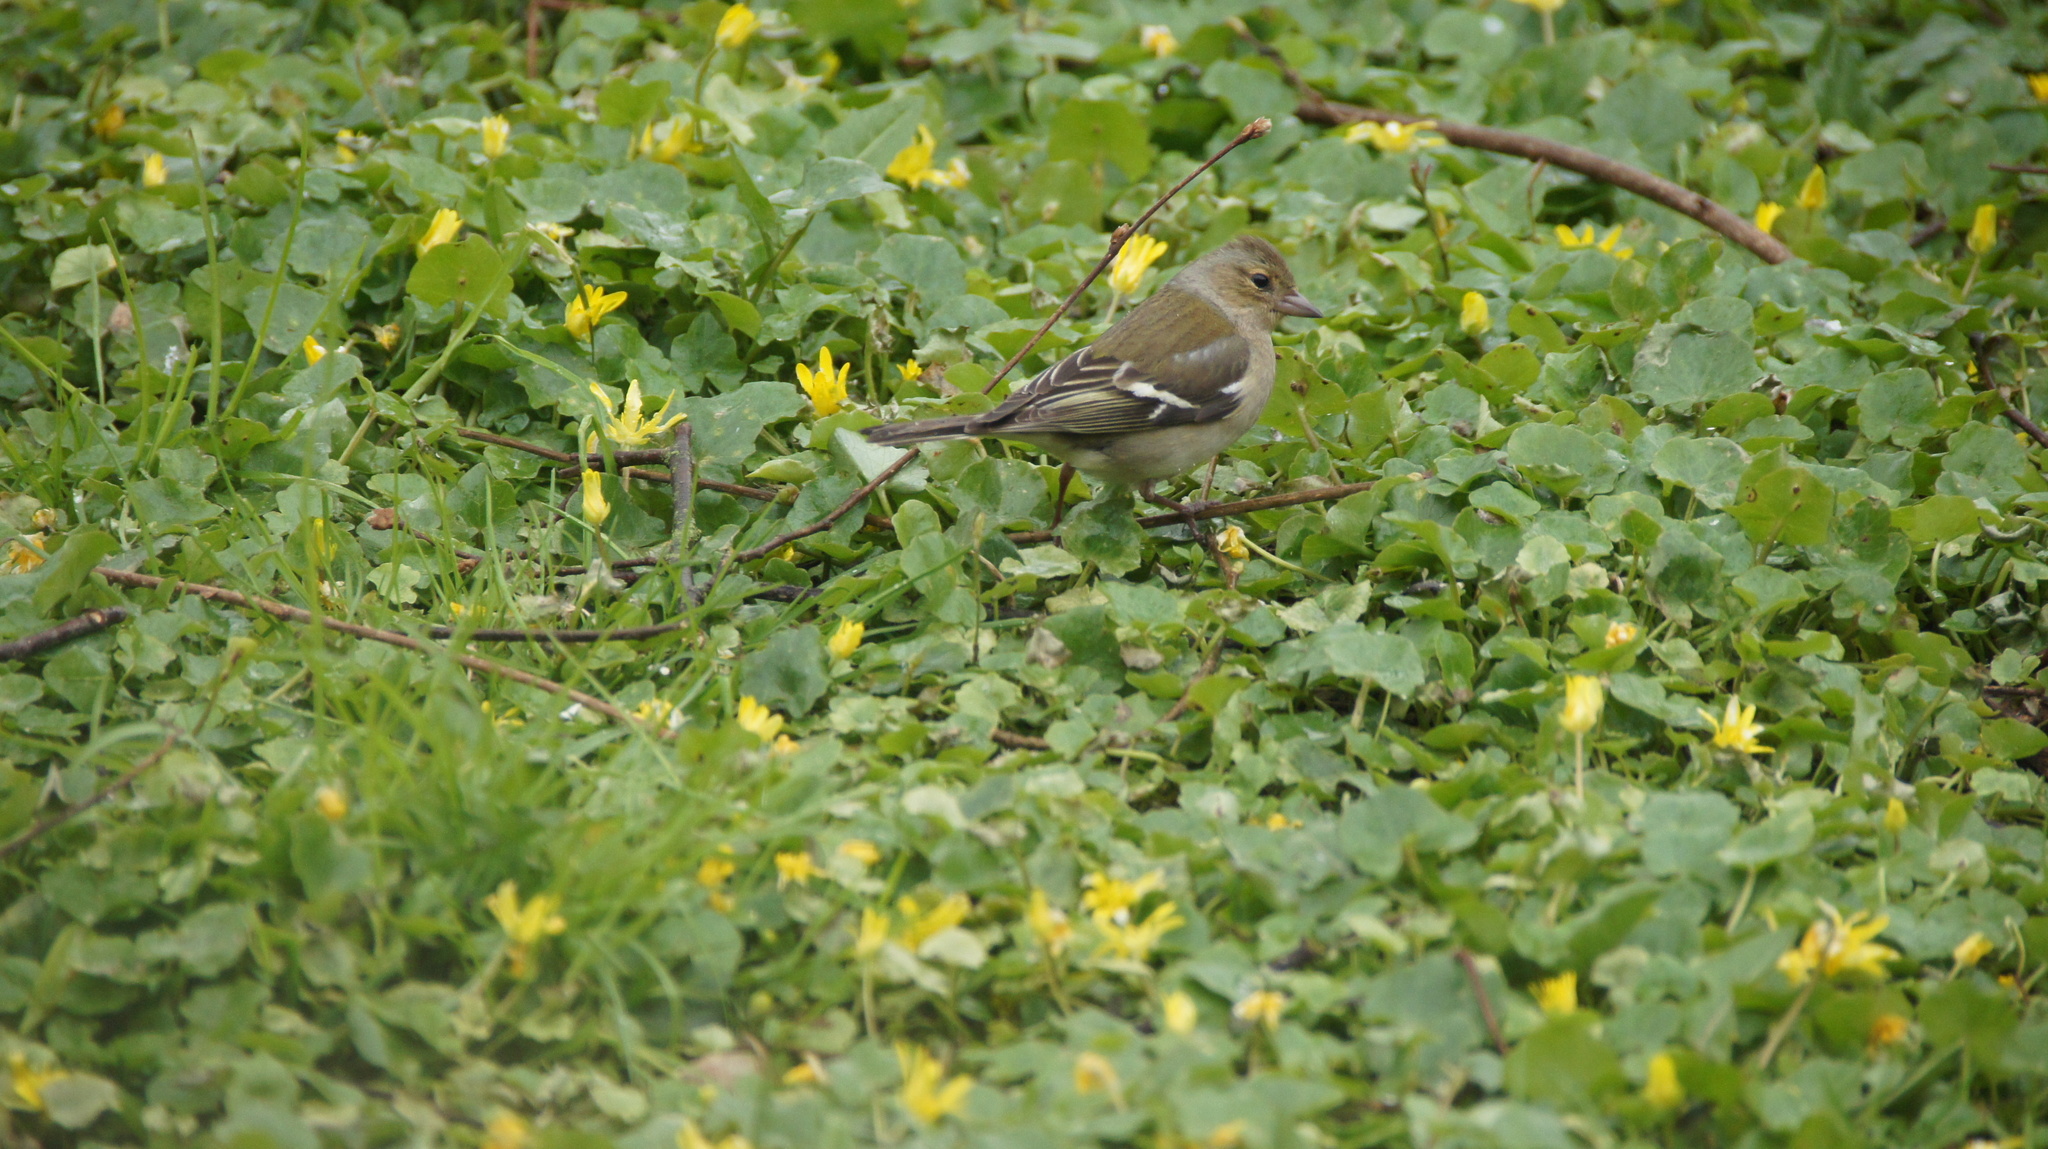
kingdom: Animalia
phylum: Chordata
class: Aves
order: Passeriformes
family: Fringillidae
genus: Fringilla
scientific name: Fringilla coelebs
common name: Common chaffinch
